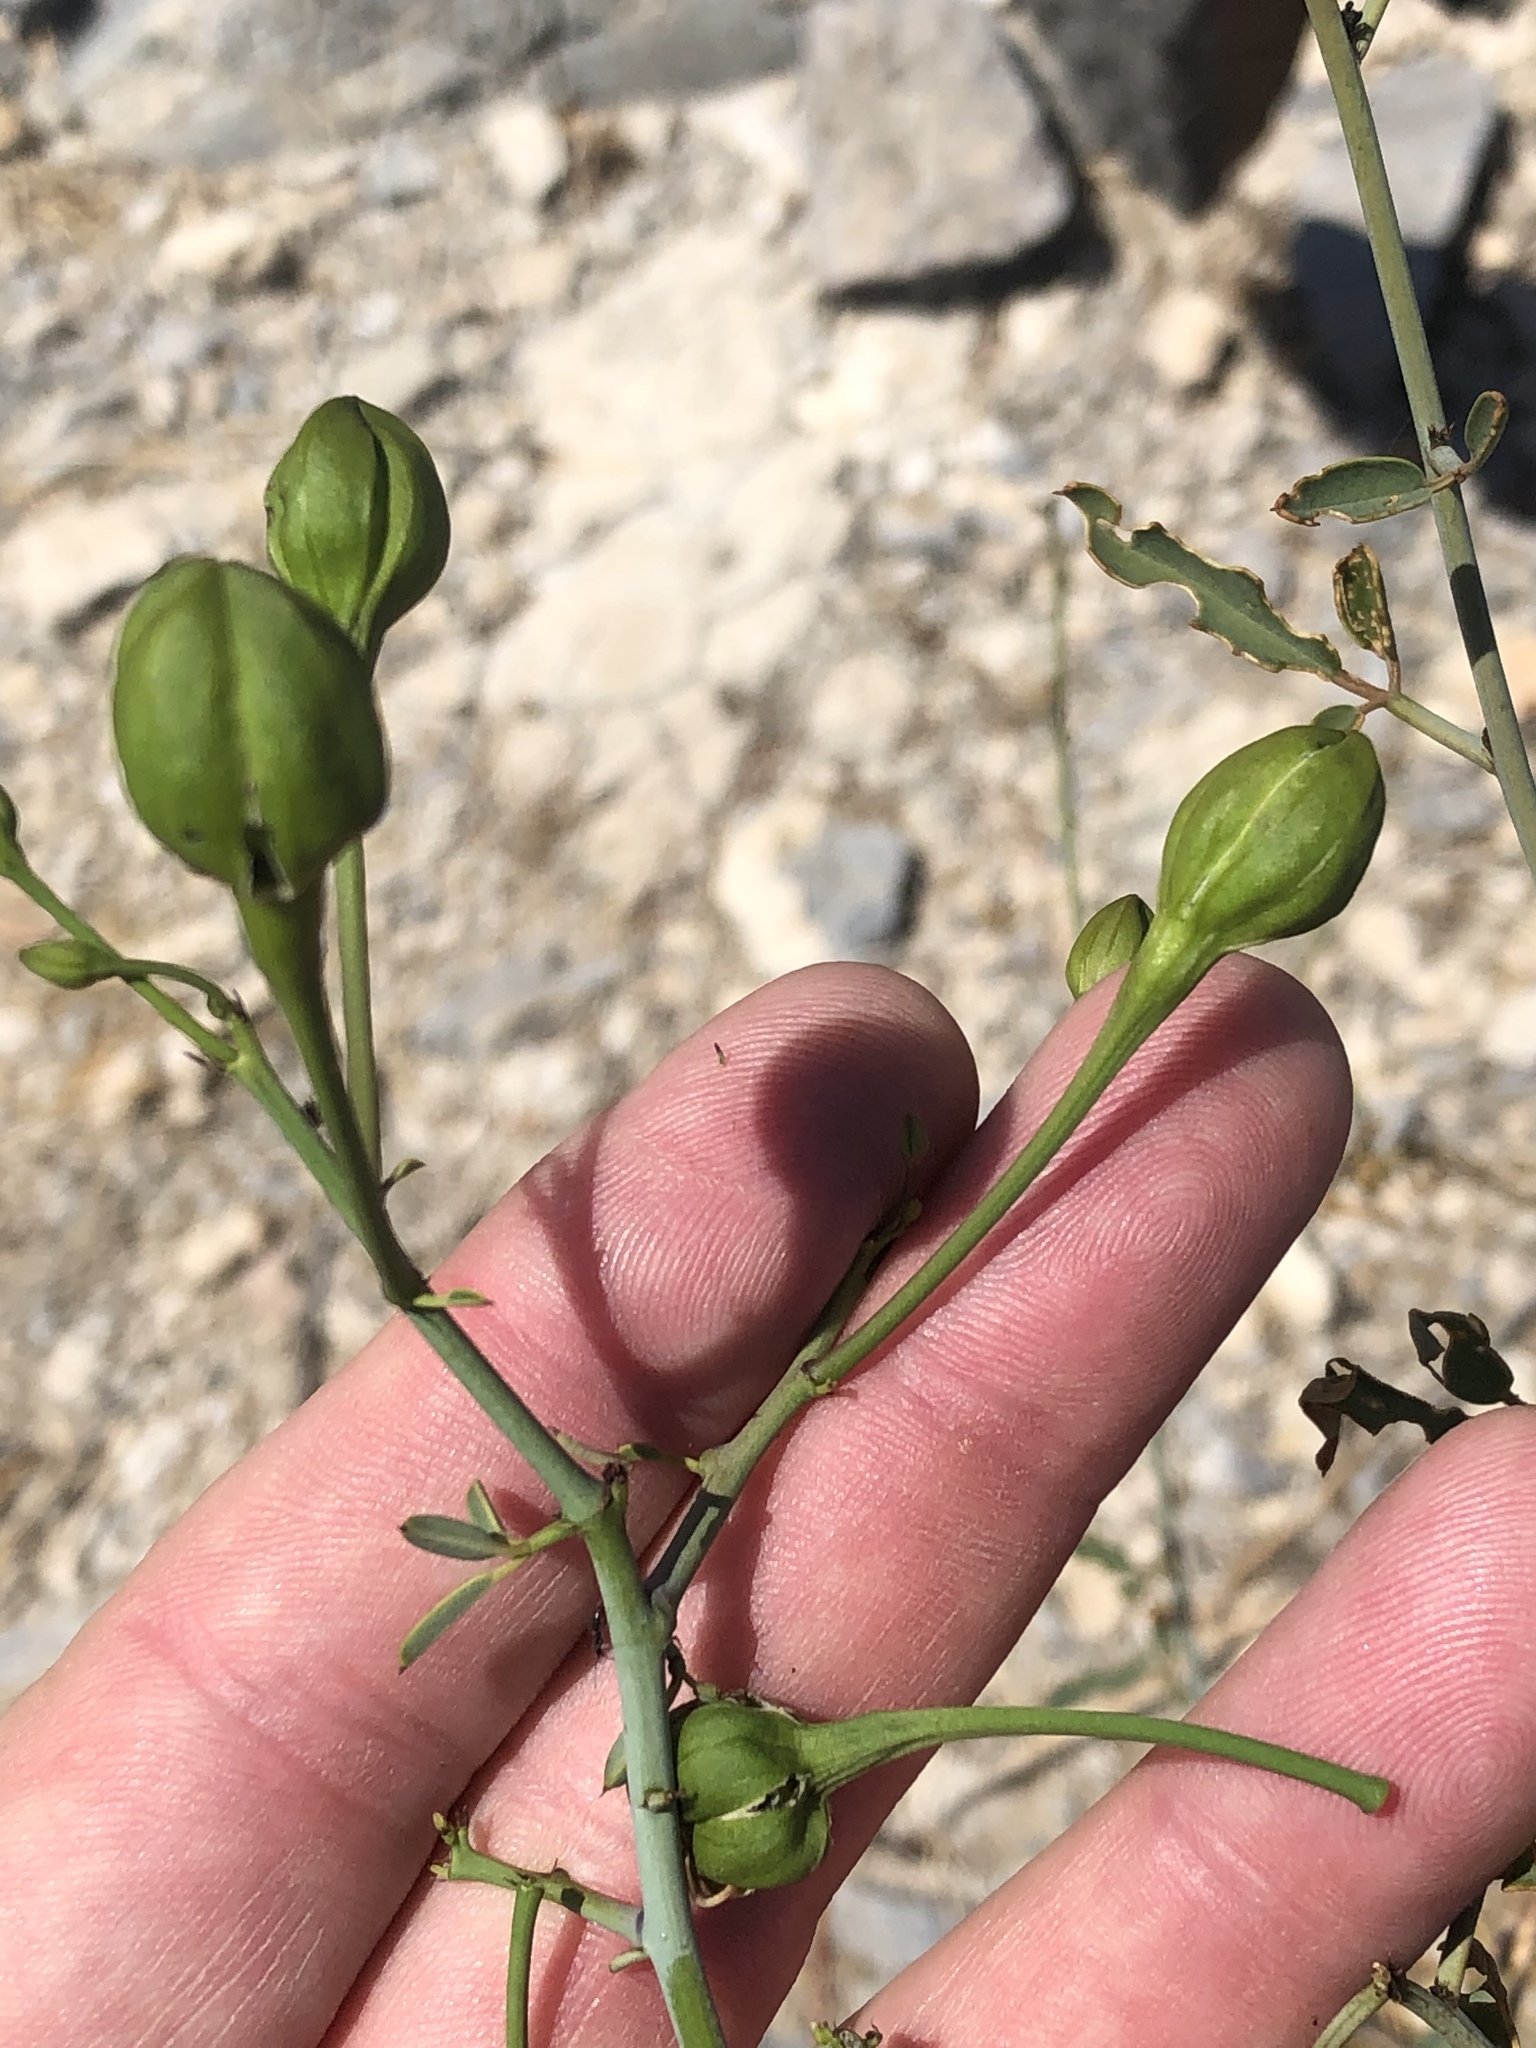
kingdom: Plantae
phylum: Tracheophyta
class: Magnoliopsida
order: Brassicales
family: Capparaceae
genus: Maerua
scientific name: Maerua juncea
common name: Rough-skinned bush cherry
